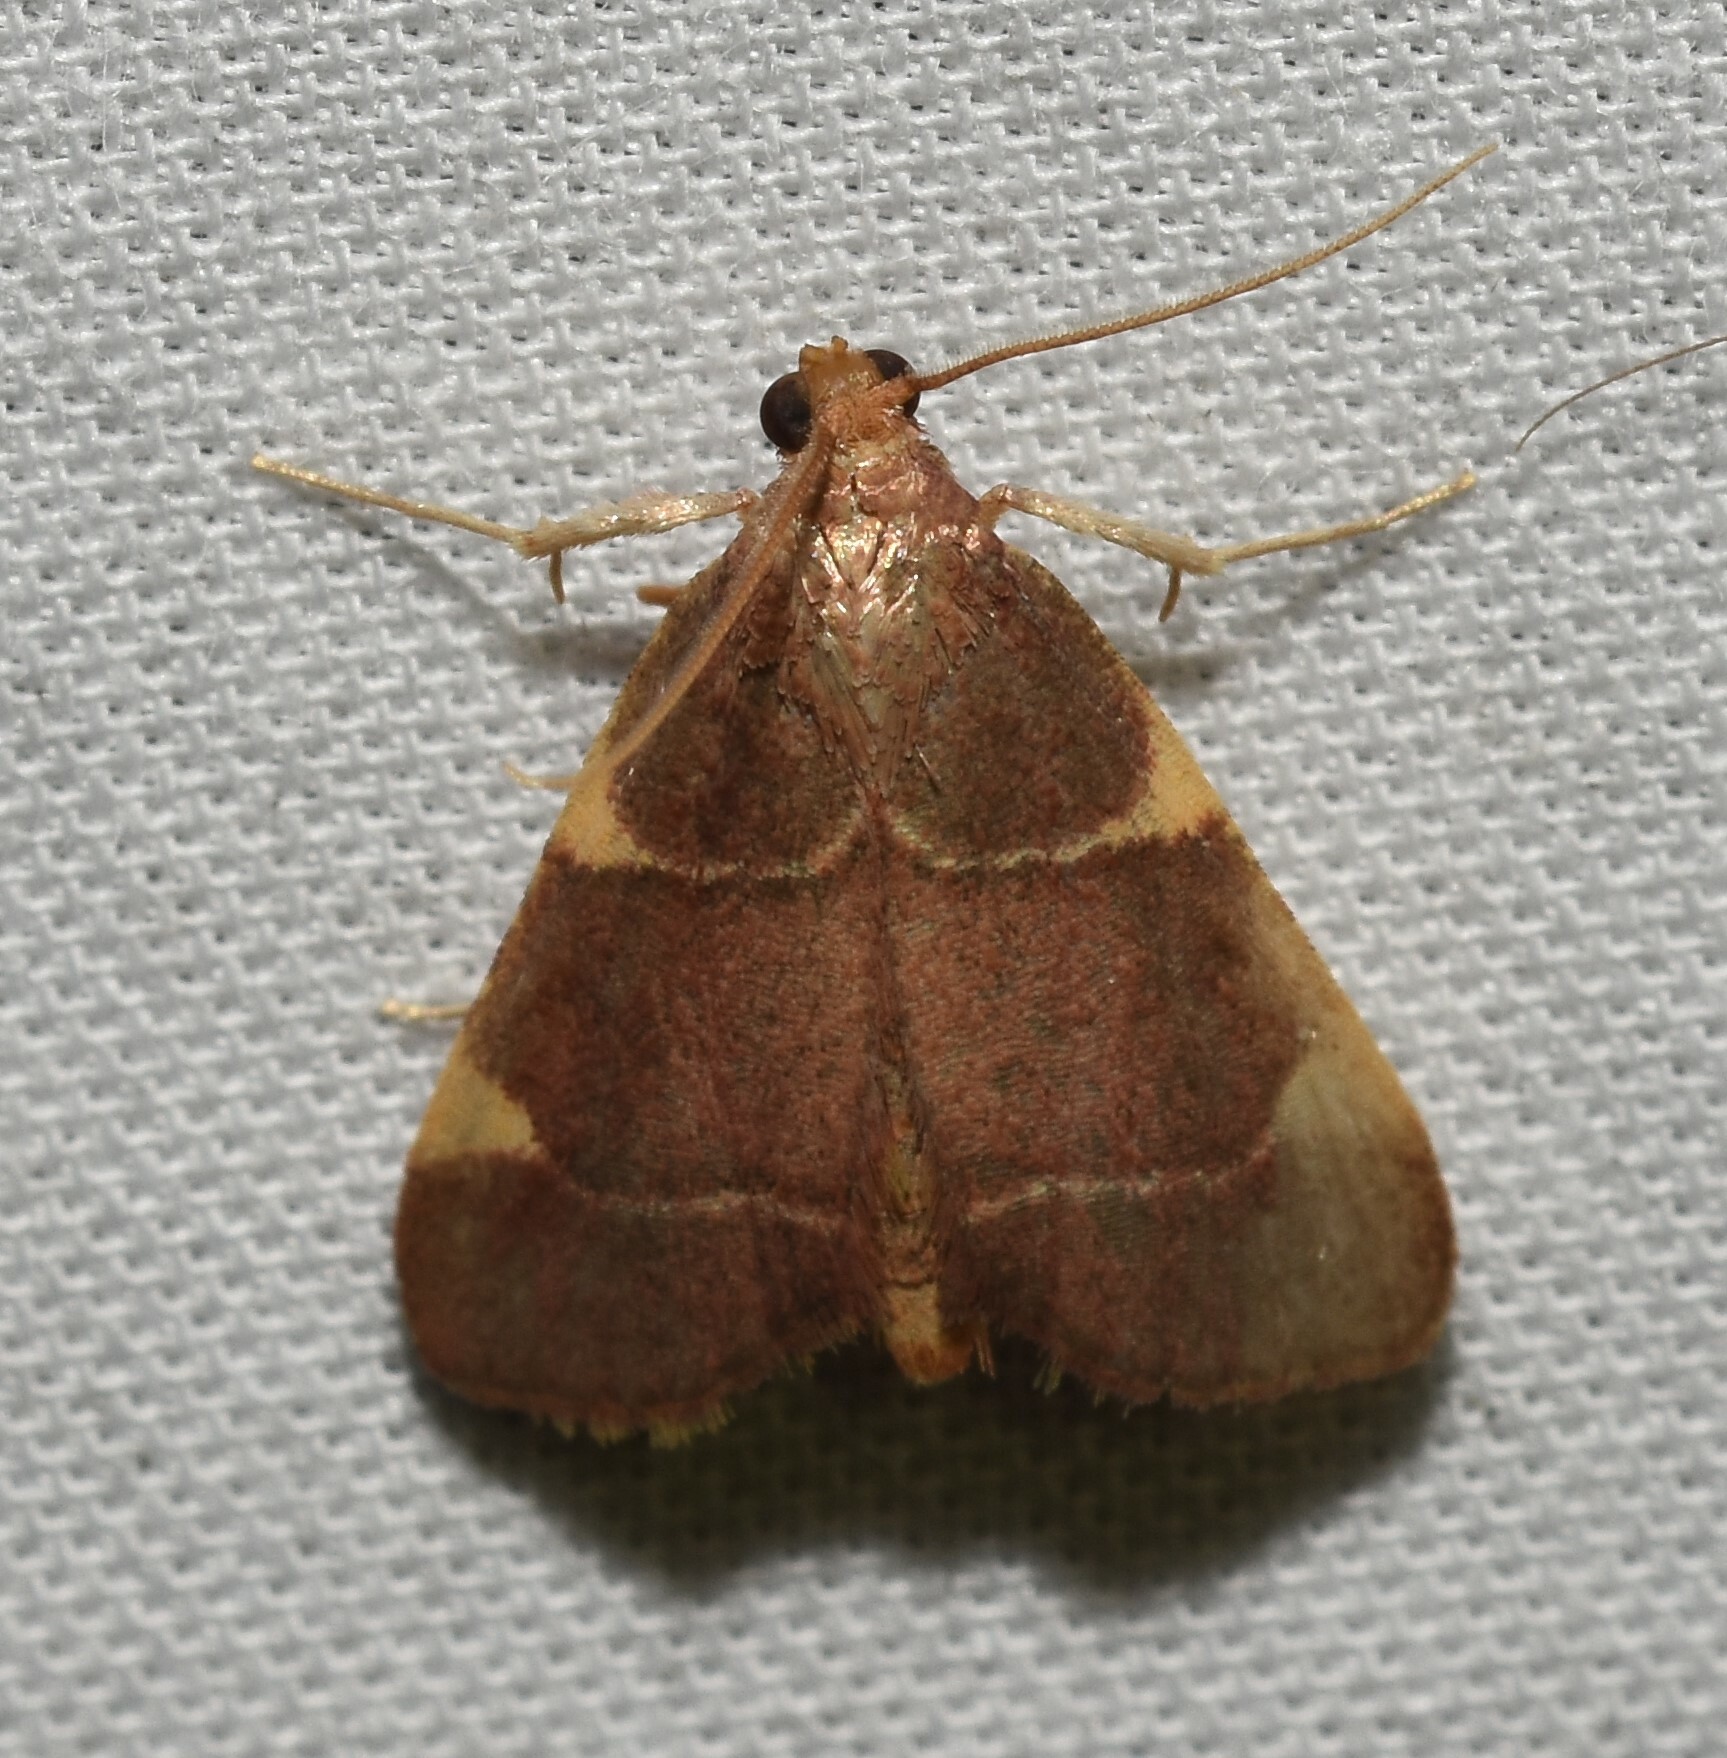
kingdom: Animalia
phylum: Arthropoda
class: Insecta
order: Lepidoptera
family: Pyralidae
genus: Hypsopygia
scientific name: Hypsopygia olinalis
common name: Yellow-fringed dolichomia moth
